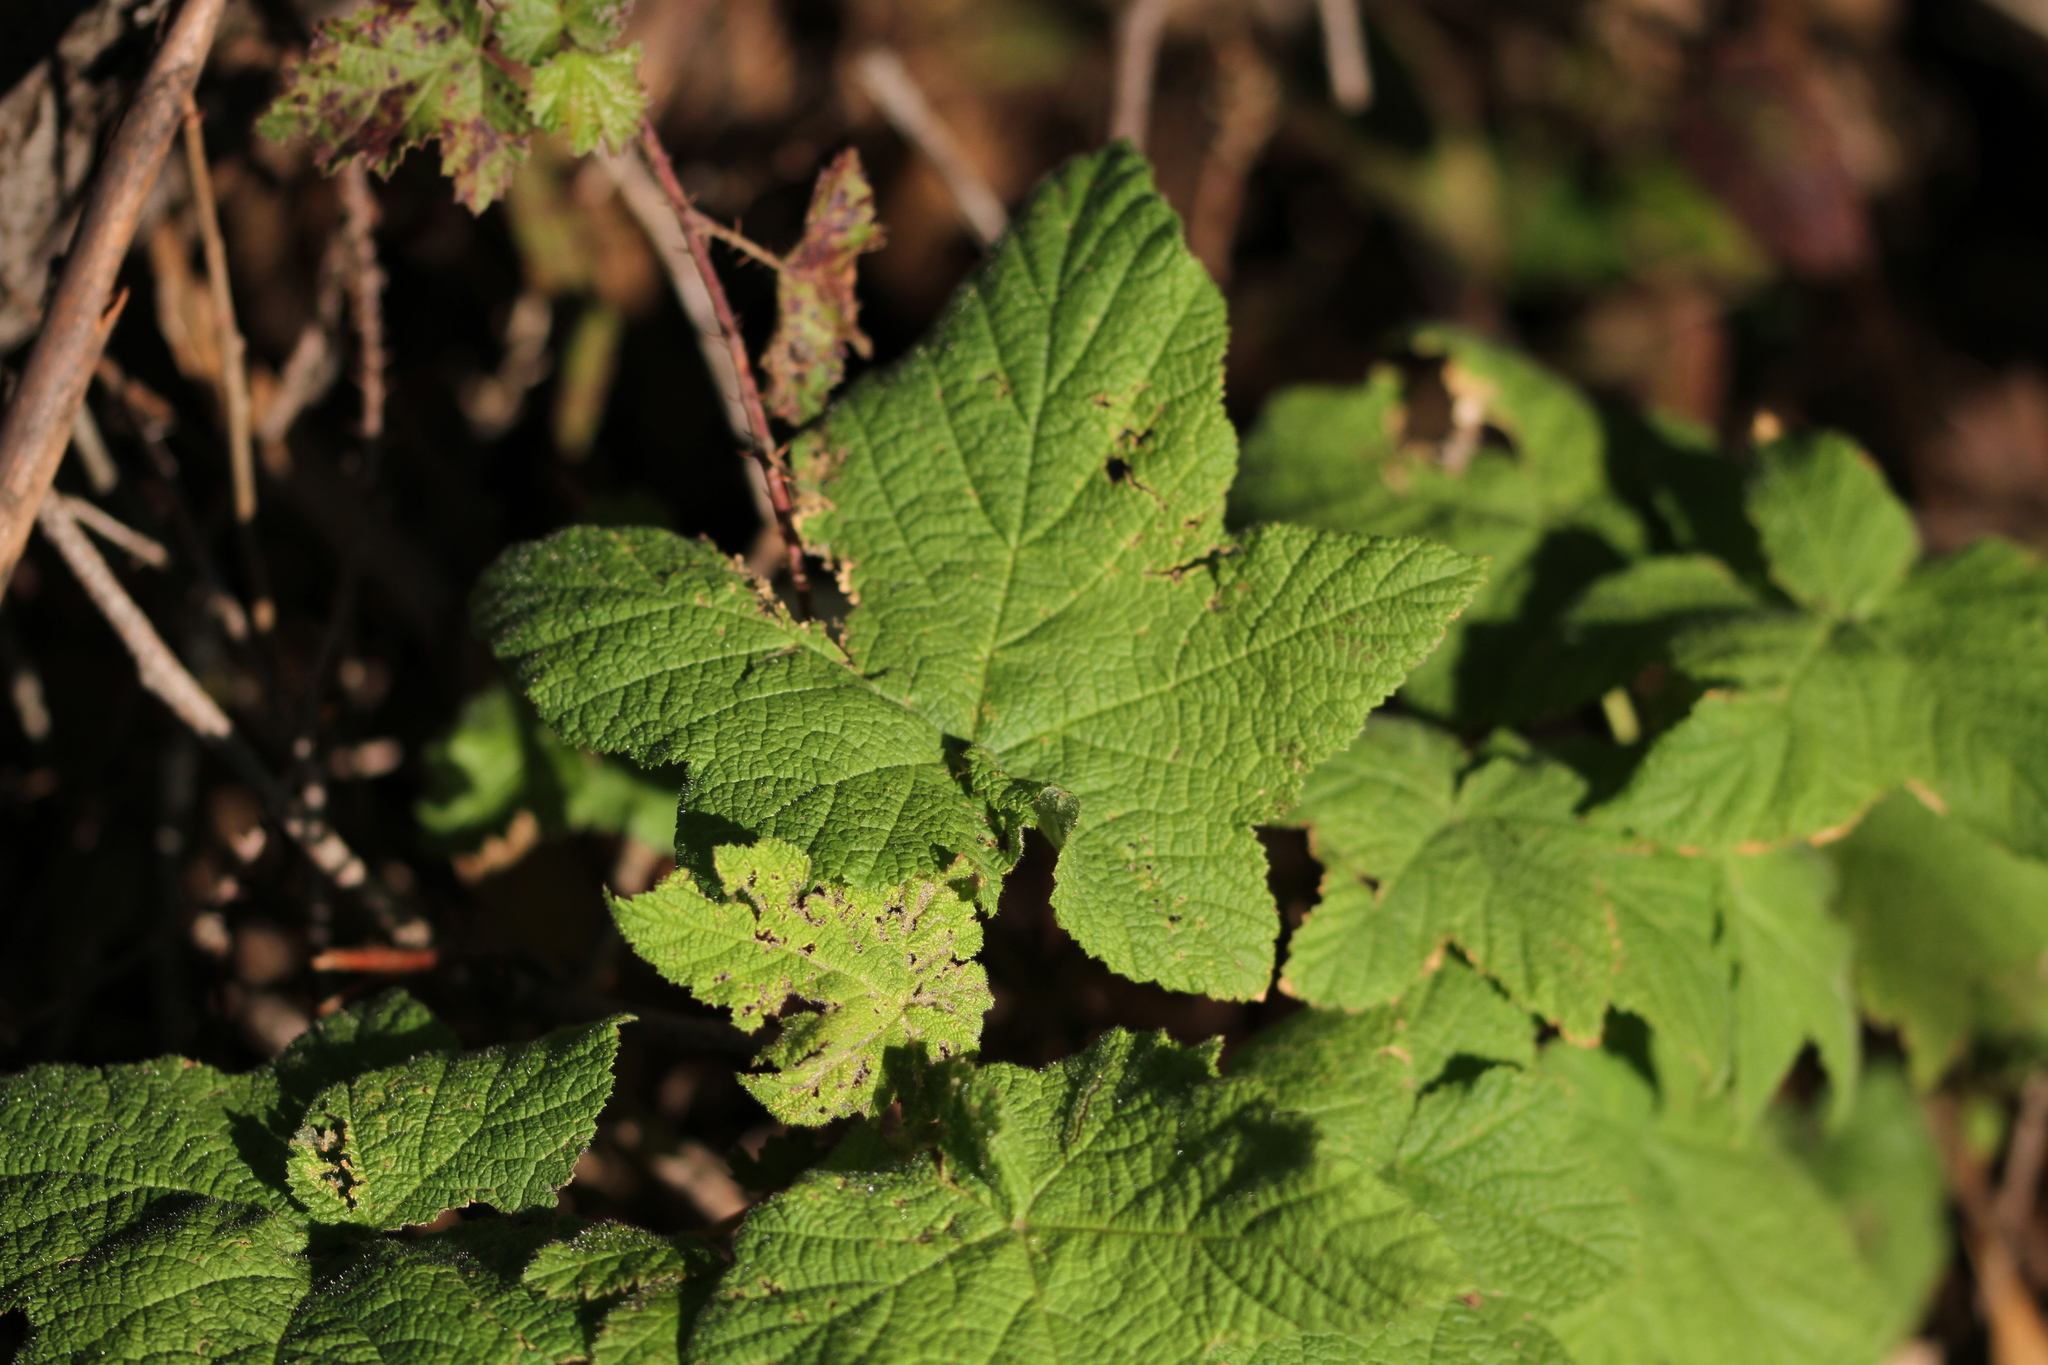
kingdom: Plantae
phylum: Tracheophyta
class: Magnoliopsida
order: Rosales
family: Rosaceae
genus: Rubus
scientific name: Rubus parviflorus
